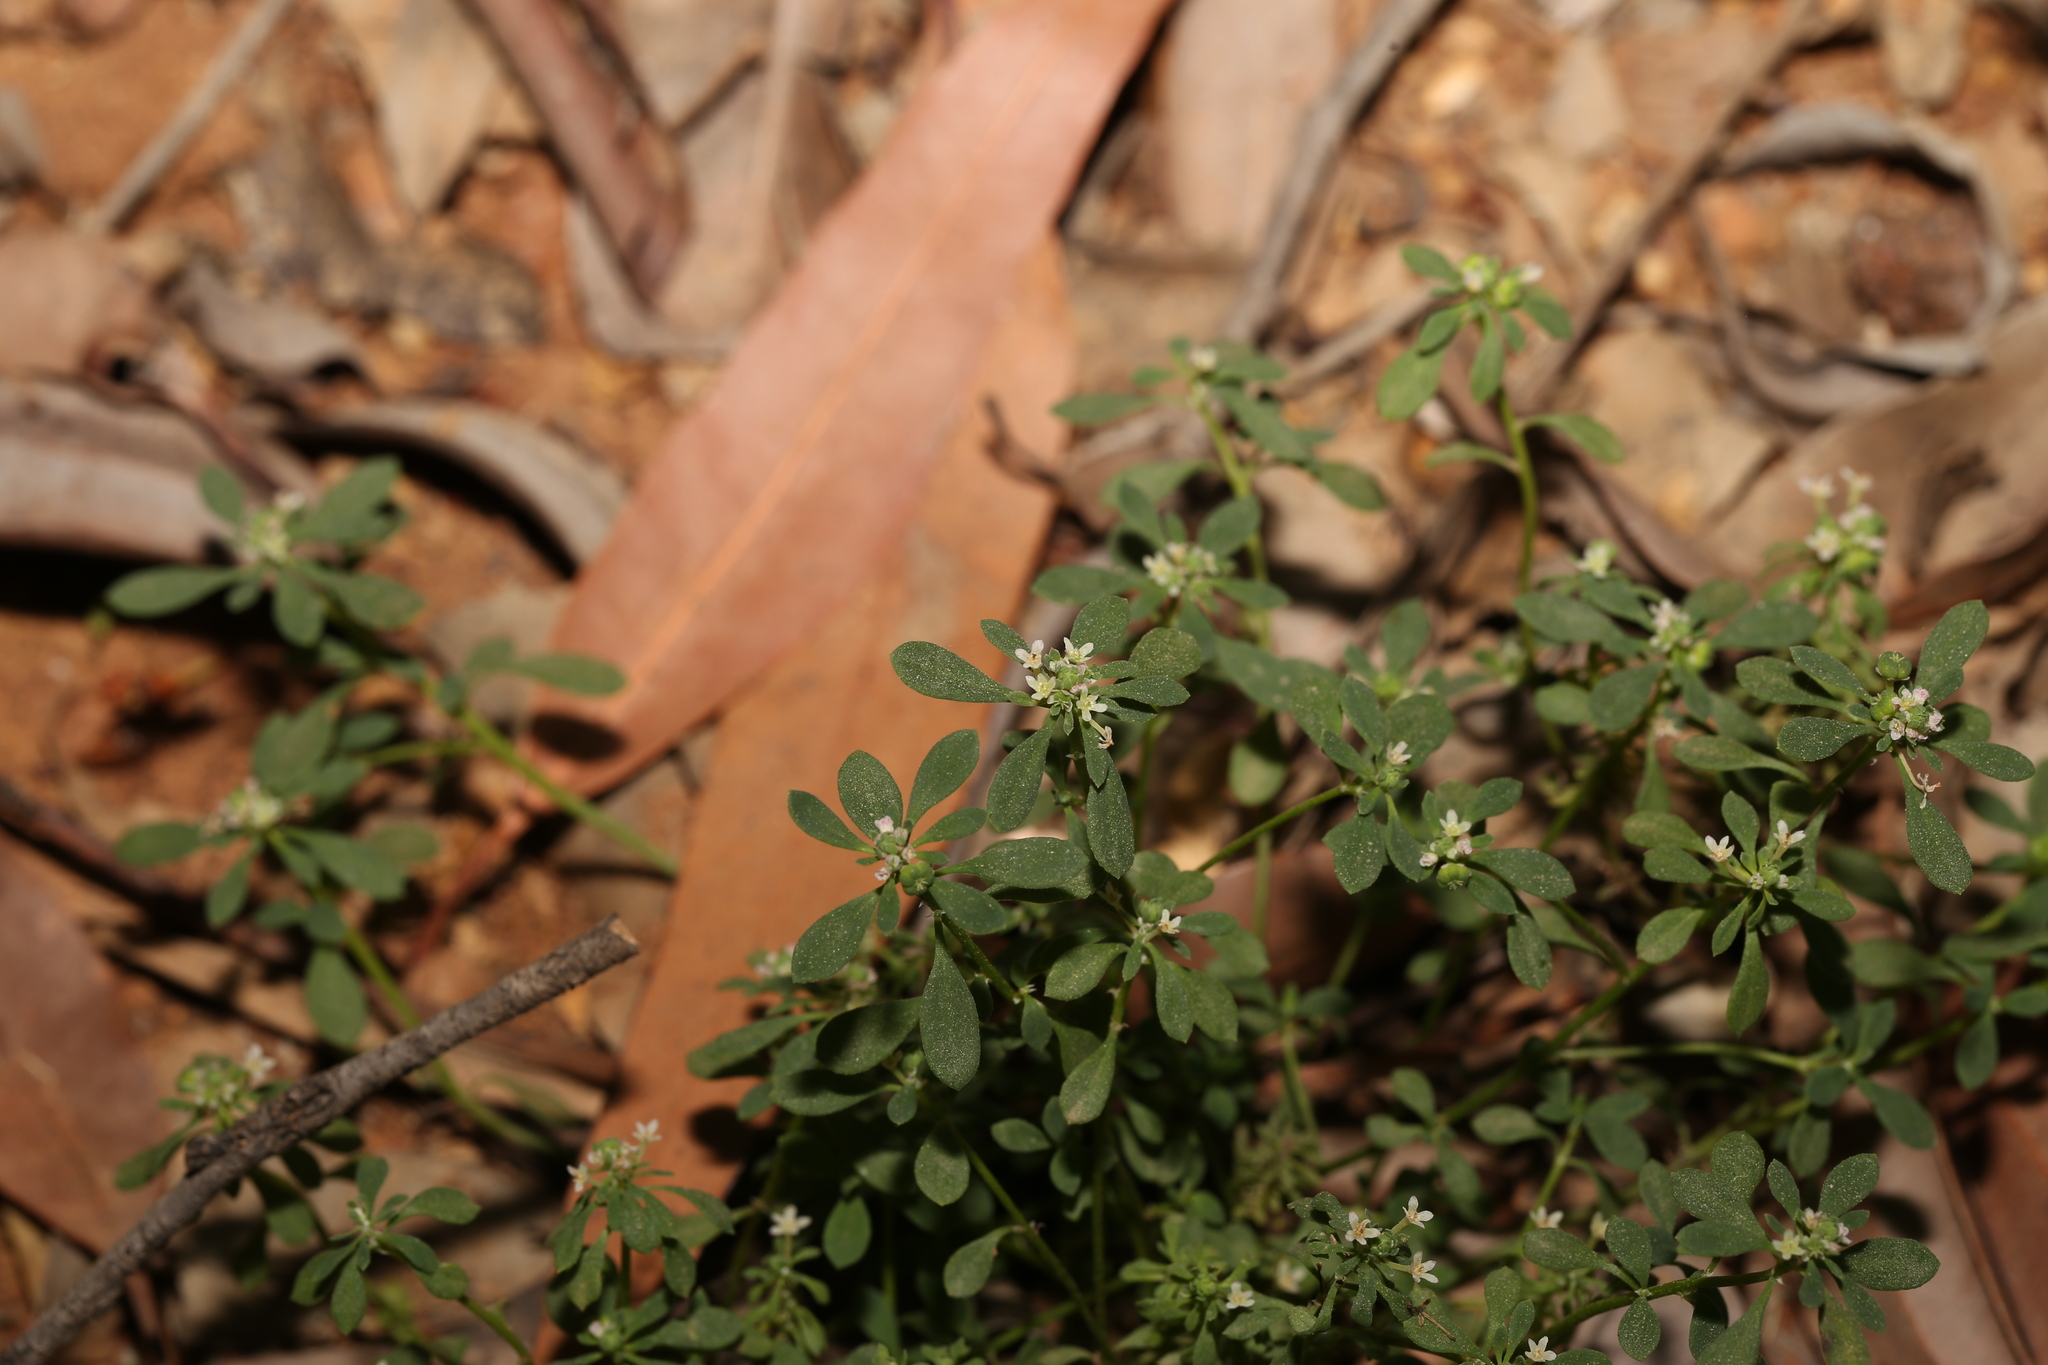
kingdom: Plantae
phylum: Tracheophyta
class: Magnoliopsida
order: Malpighiales
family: Phyllanthaceae
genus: Poranthera
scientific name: Poranthera microphylla
